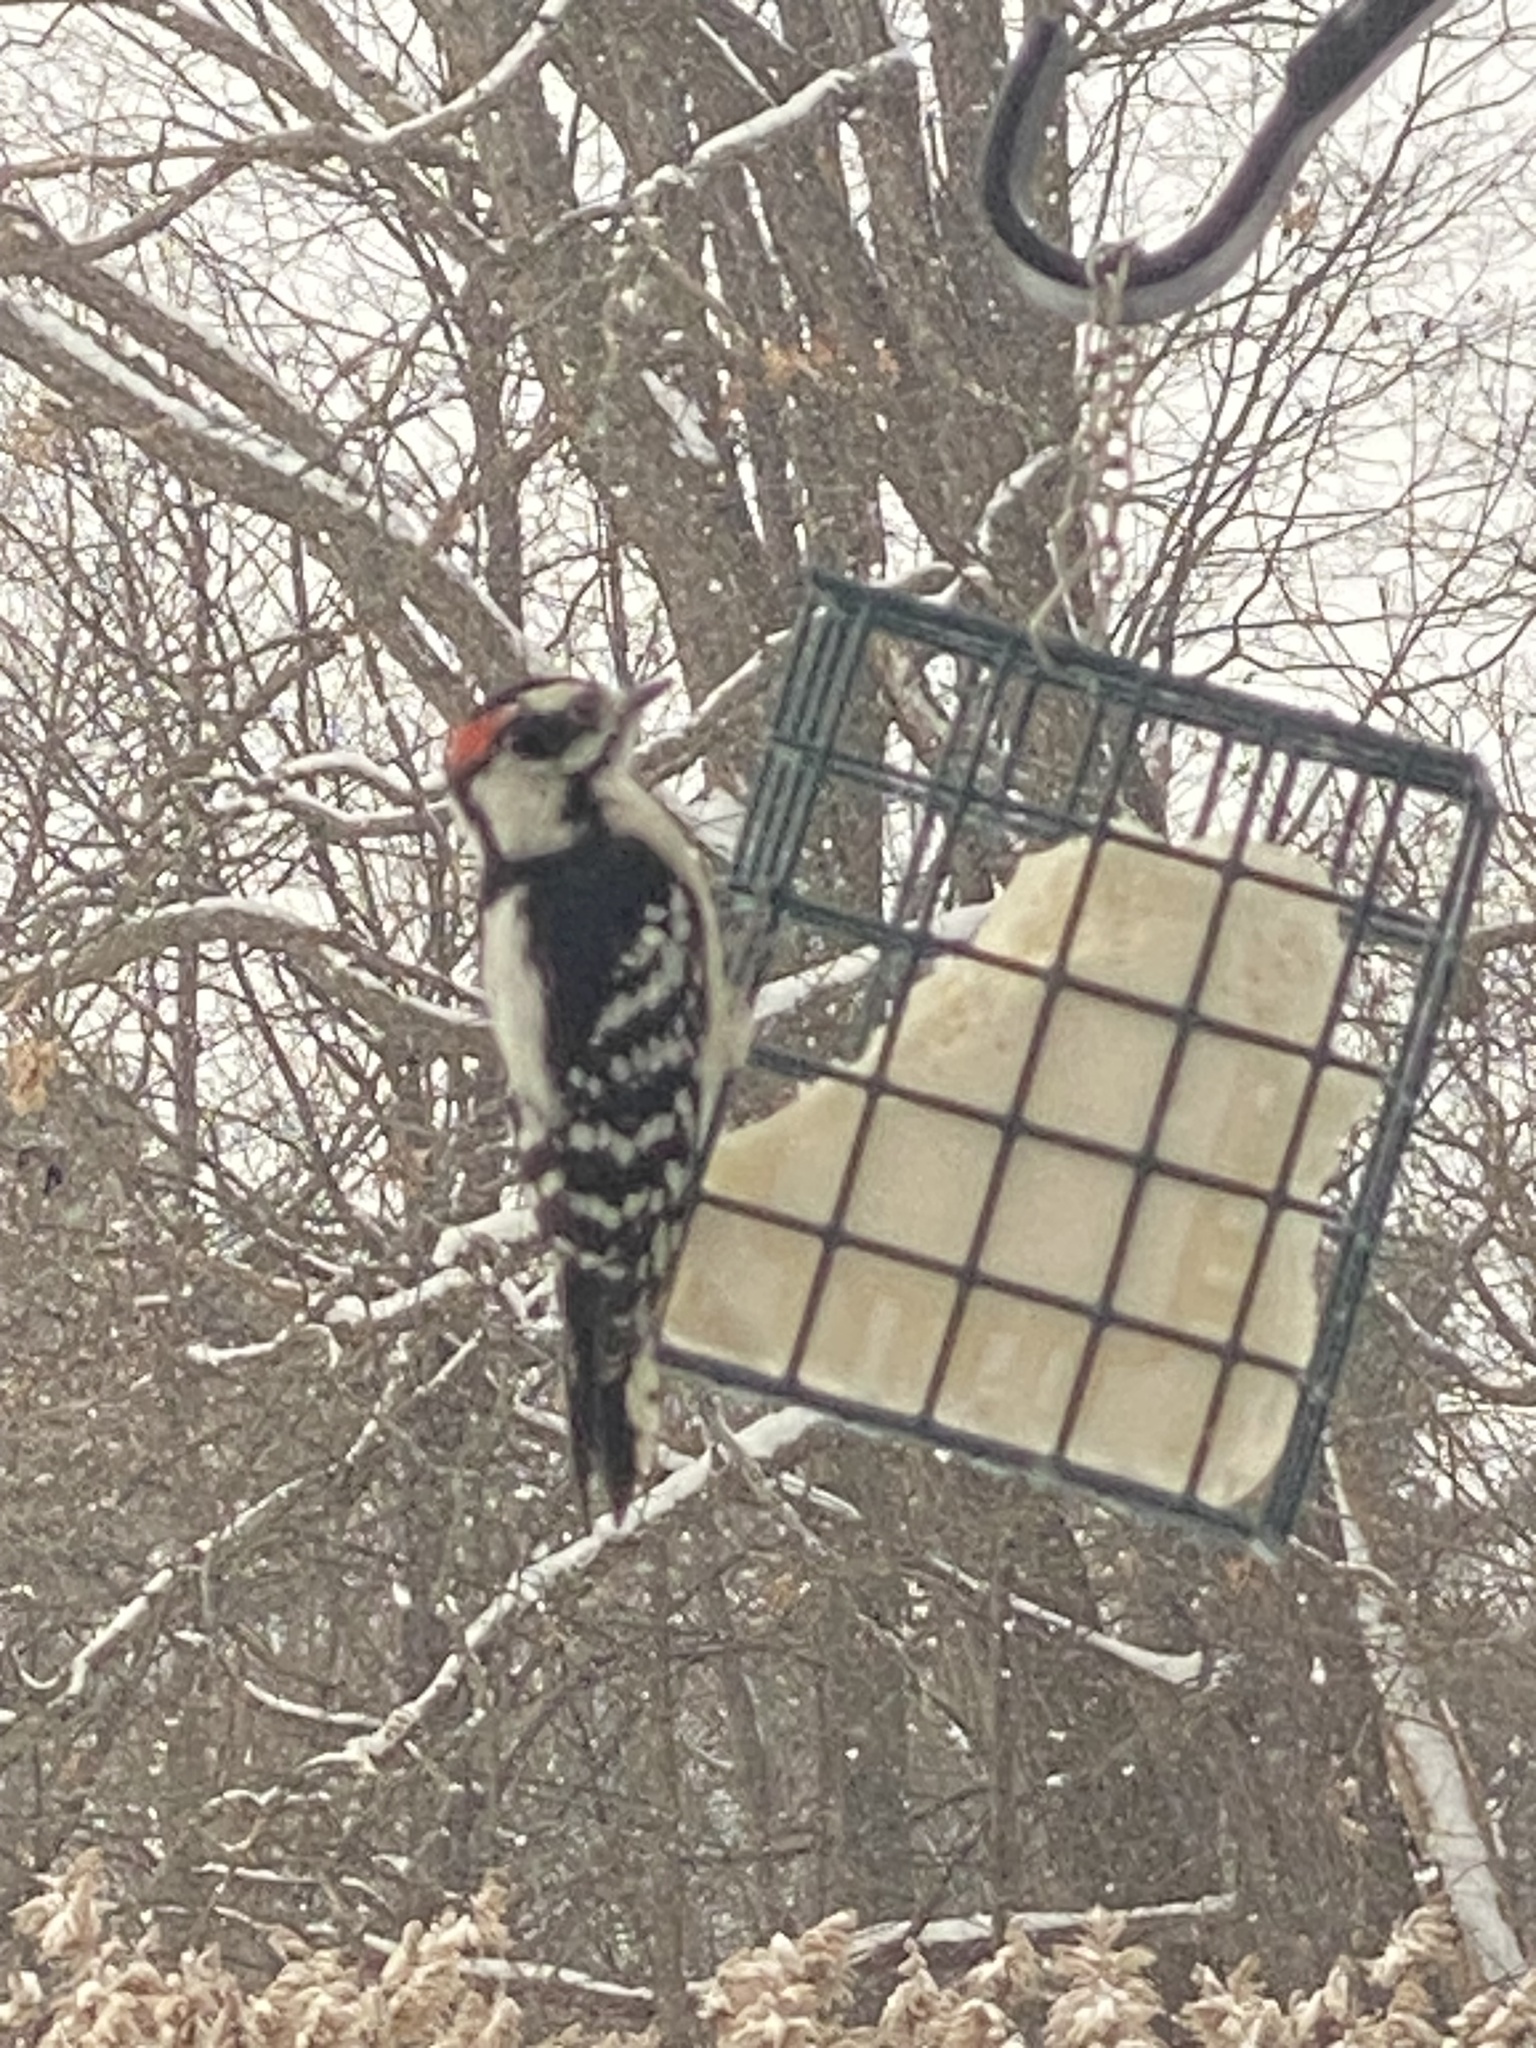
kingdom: Animalia
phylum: Chordata
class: Aves
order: Piciformes
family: Picidae
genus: Dryobates
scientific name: Dryobates pubescens
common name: Downy woodpecker
